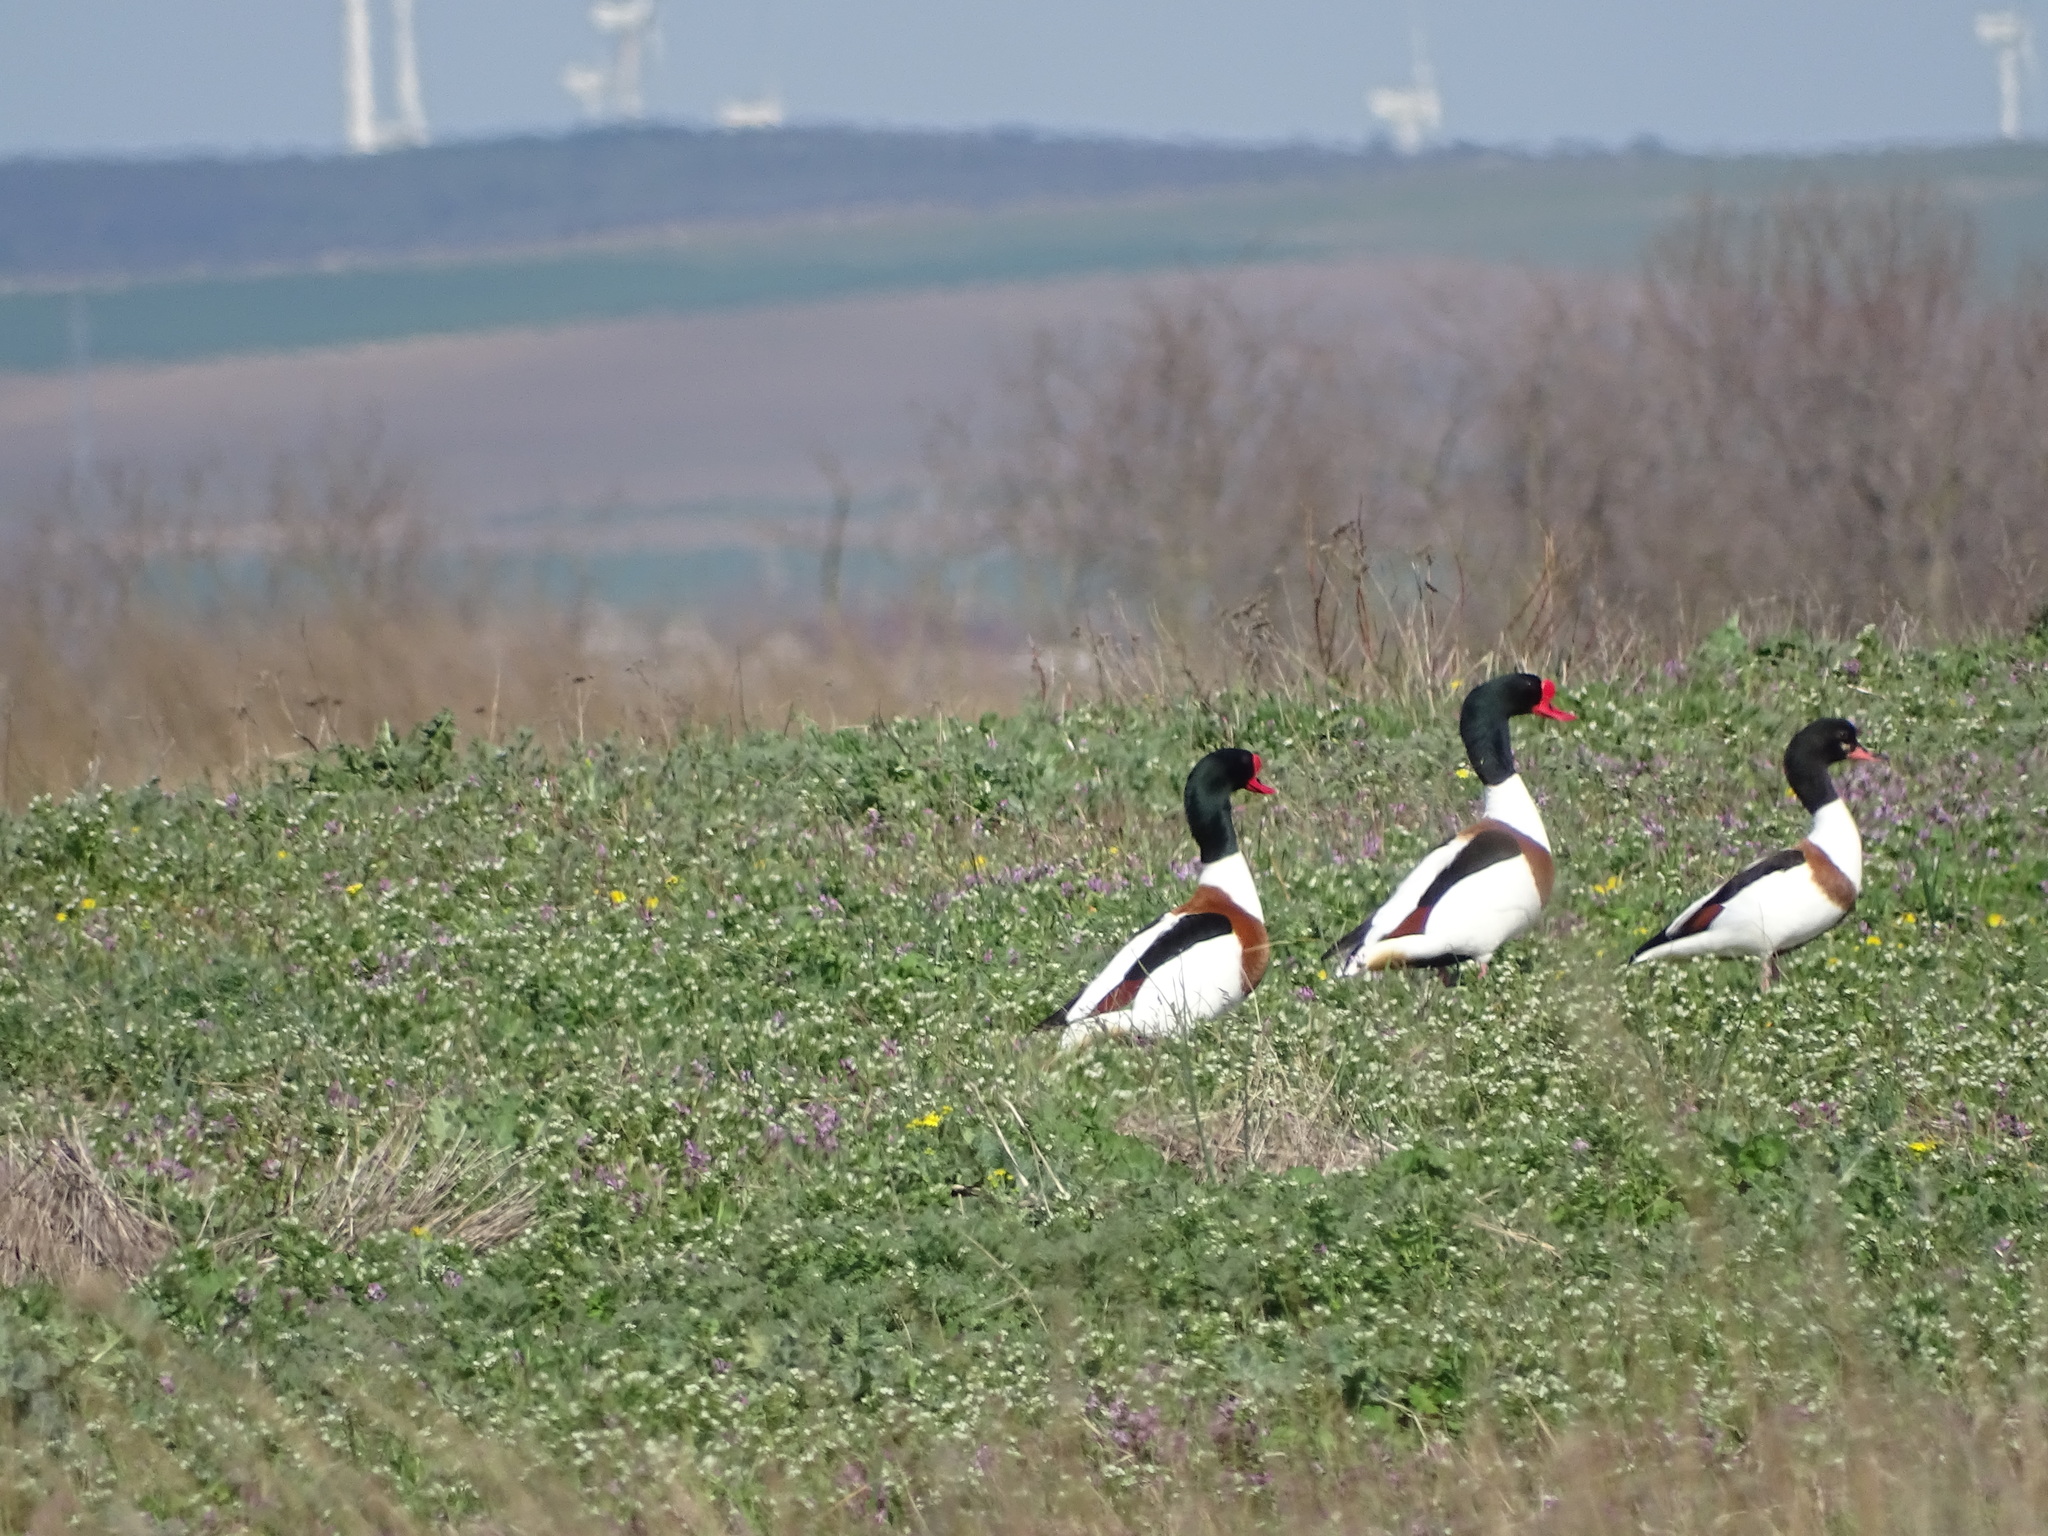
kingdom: Animalia
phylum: Chordata
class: Aves
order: Anseriformes
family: Anatidae
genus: Tadorna
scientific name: Tadorna tadorna
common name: Common shelduck
